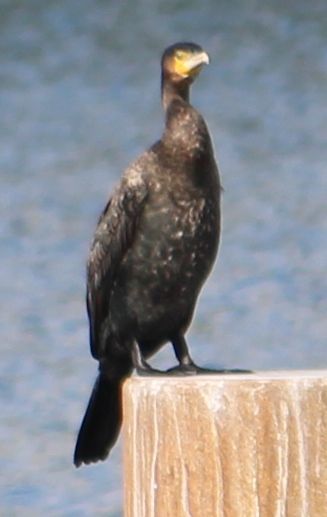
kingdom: Animalia
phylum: Chordata
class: Aves
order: Suliformes
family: Phalacrocoracidae
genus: Phalacrocorax
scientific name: Phalacrocorax carbo
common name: Great cormorant
